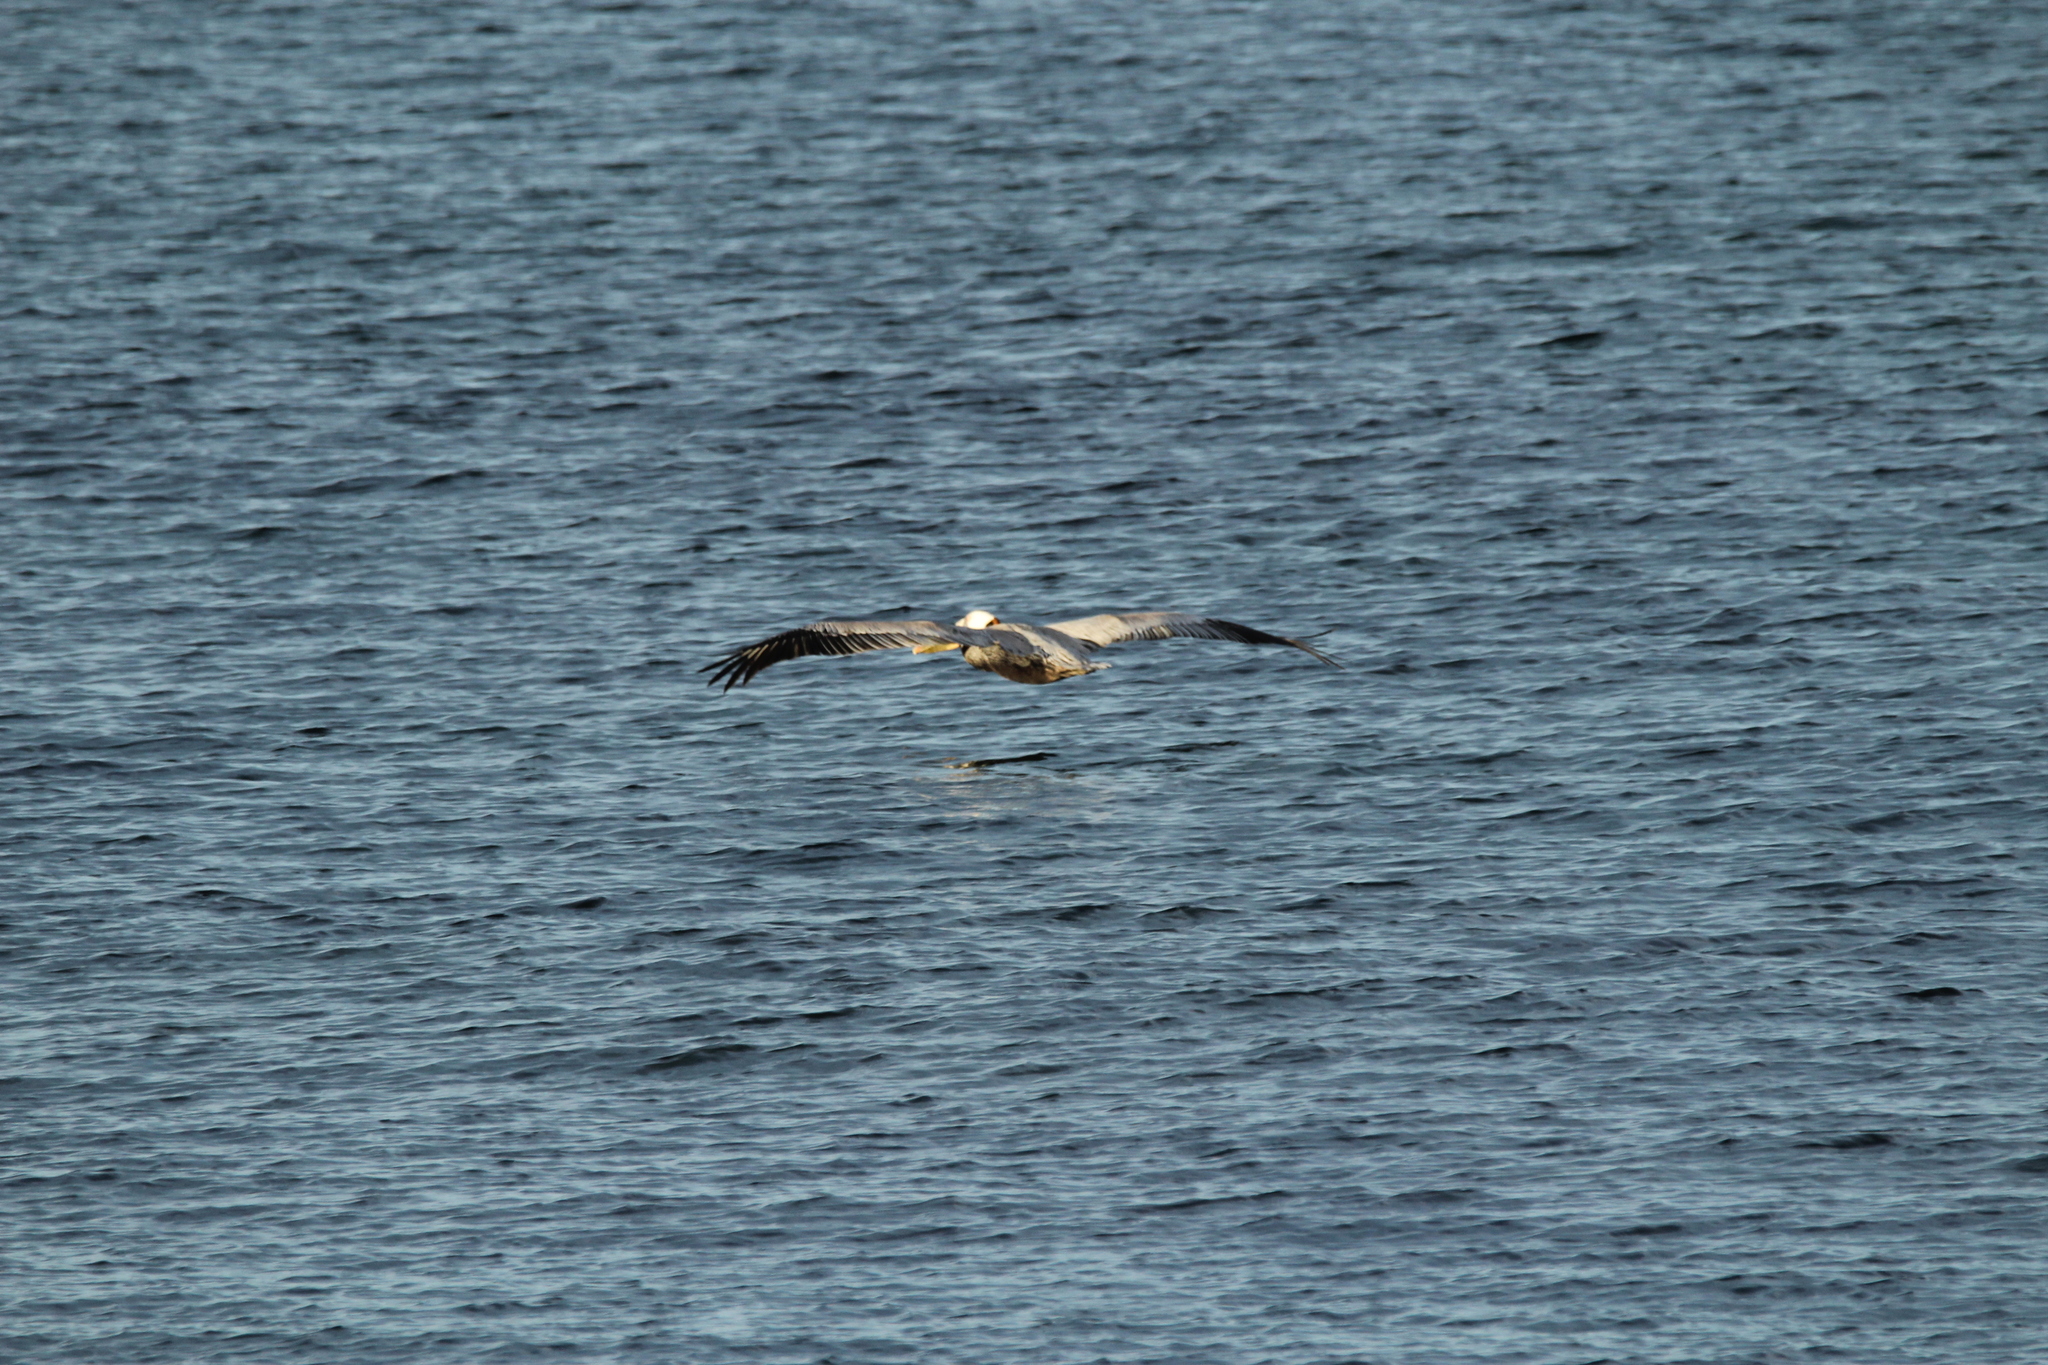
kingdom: Animalia
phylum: Chordata
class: Aves
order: Pelecaniformes
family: Pelecanidae
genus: Pelecanus
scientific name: Pelecanus occidentalis
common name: Brown pelican
